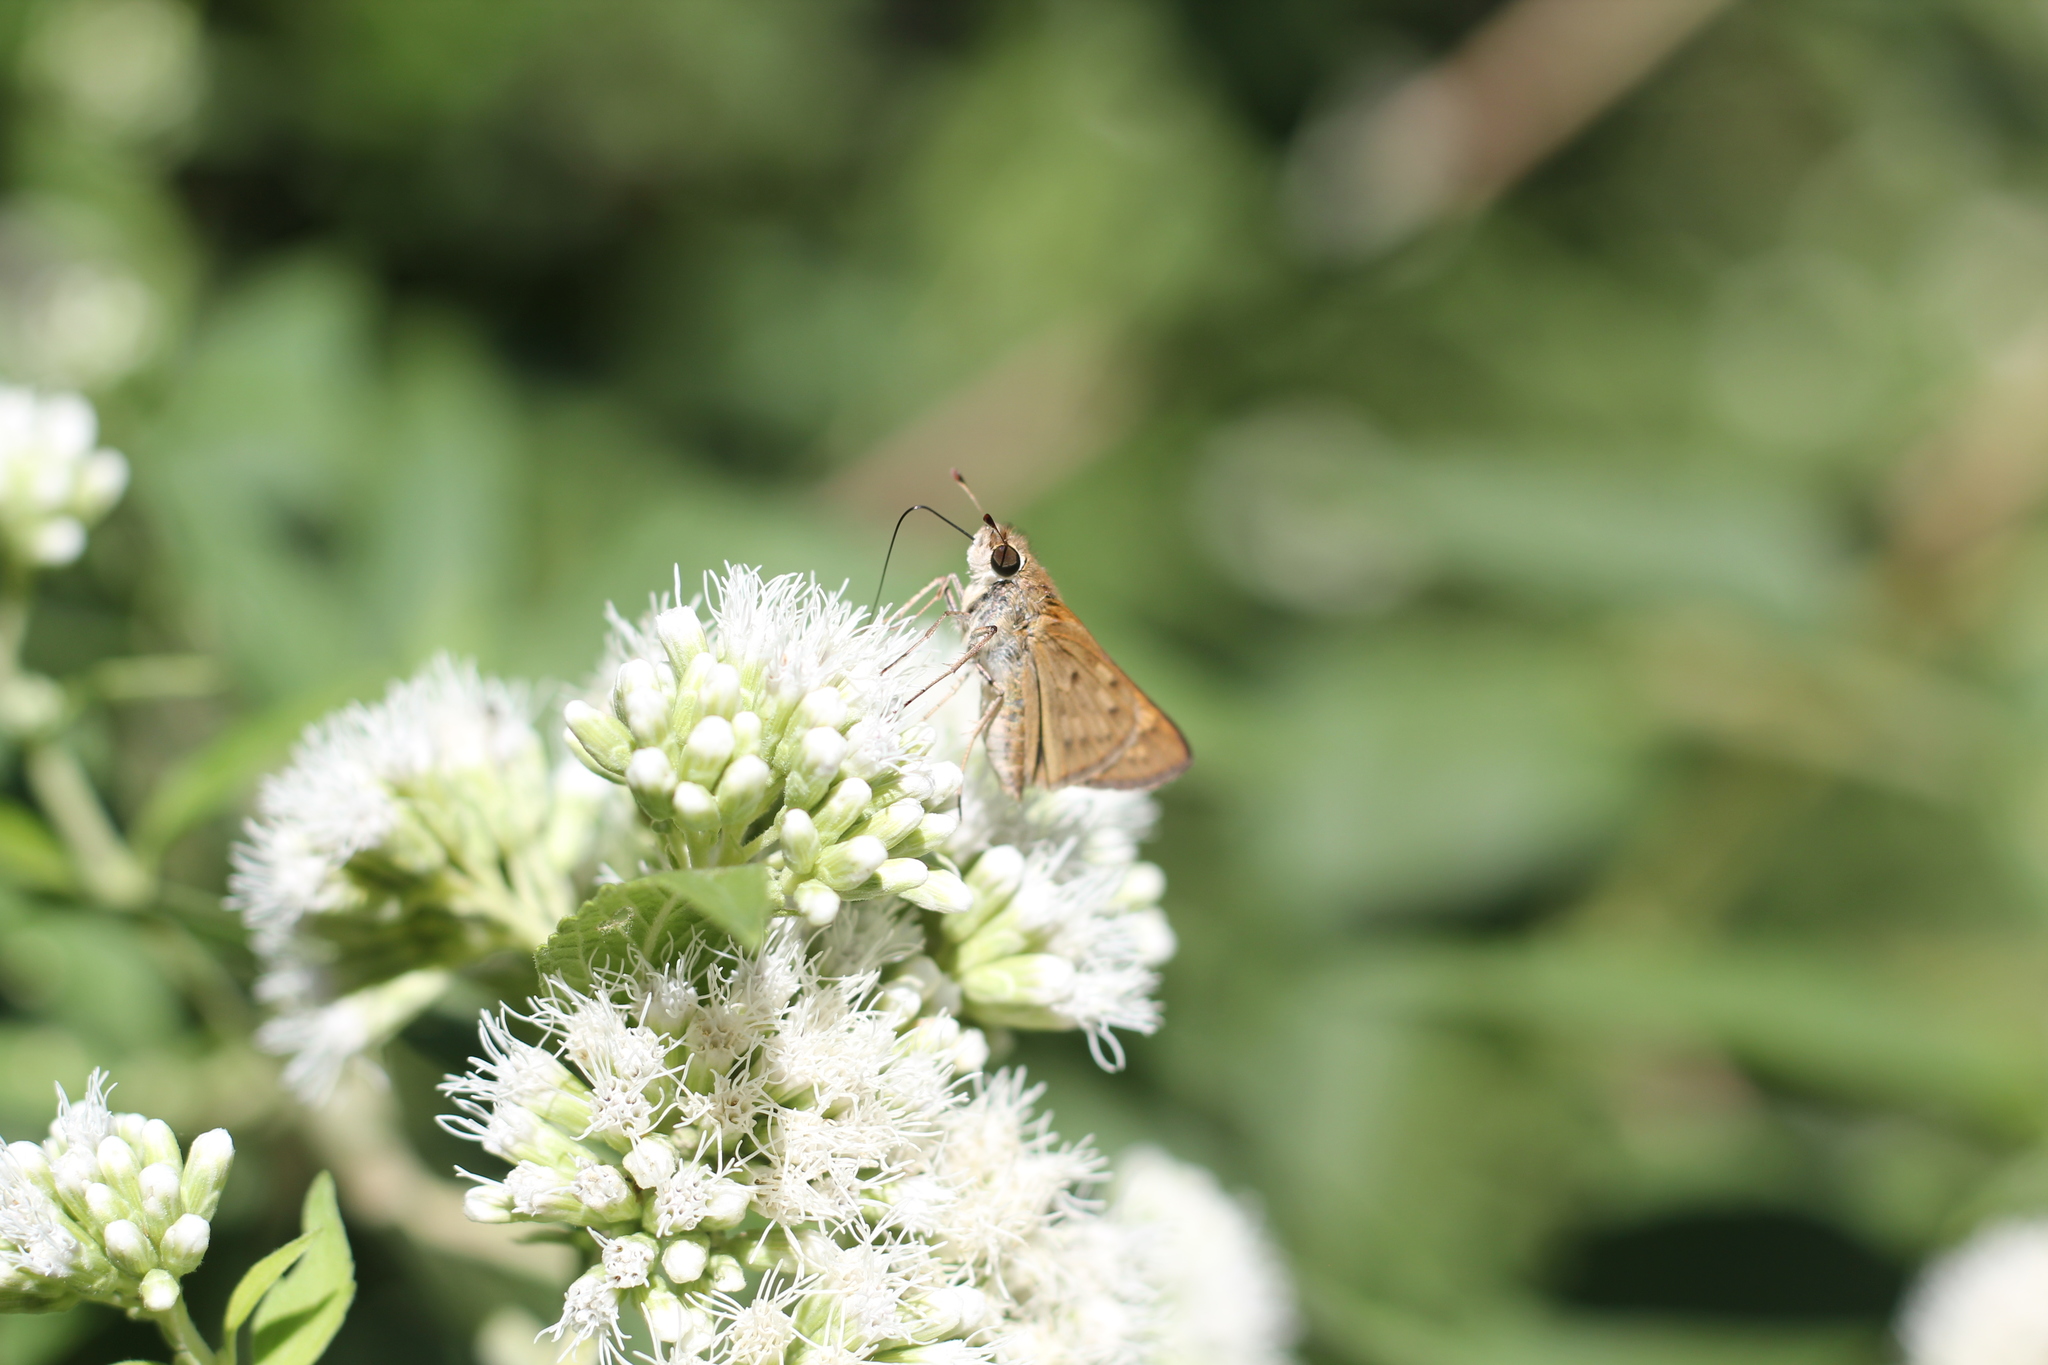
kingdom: Animalia
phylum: Arthropoda
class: Insecta
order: Lepidoptera
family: Hesperiidae
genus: Hylephila
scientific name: Hylephila phyleus
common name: Fiery skipper
